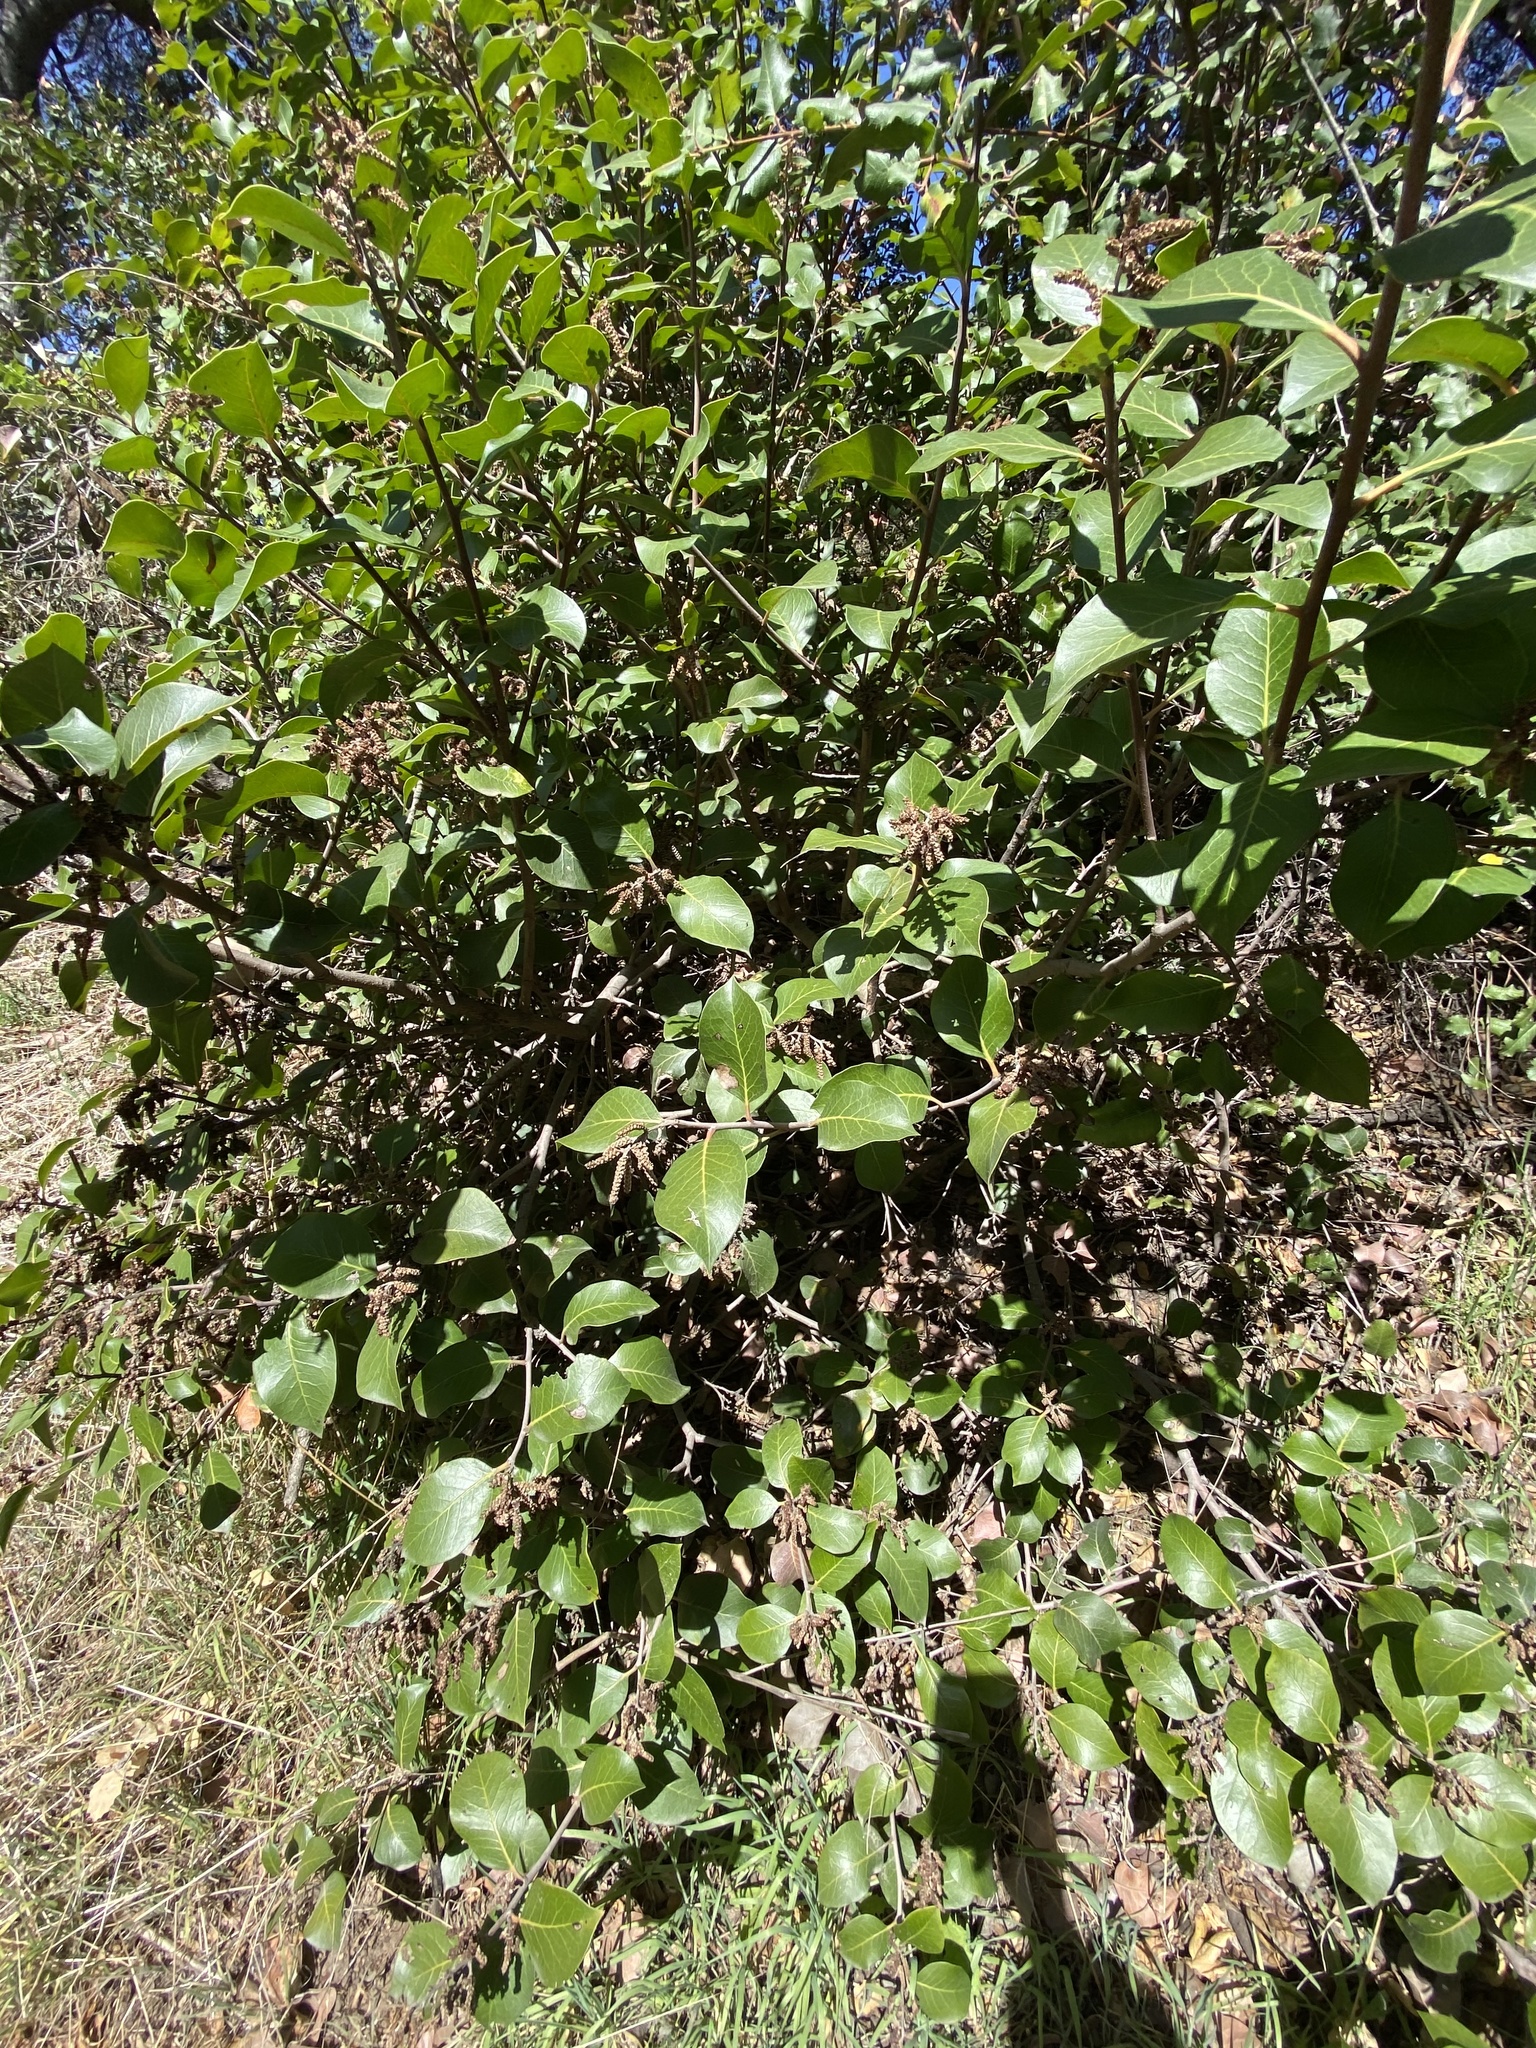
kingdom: Plantae
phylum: Tracheophyta
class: Magnoliopsida
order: Dipsacales
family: Viburnaceae
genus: Sambucus
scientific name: Sambucus cerulea
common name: Blue elder
